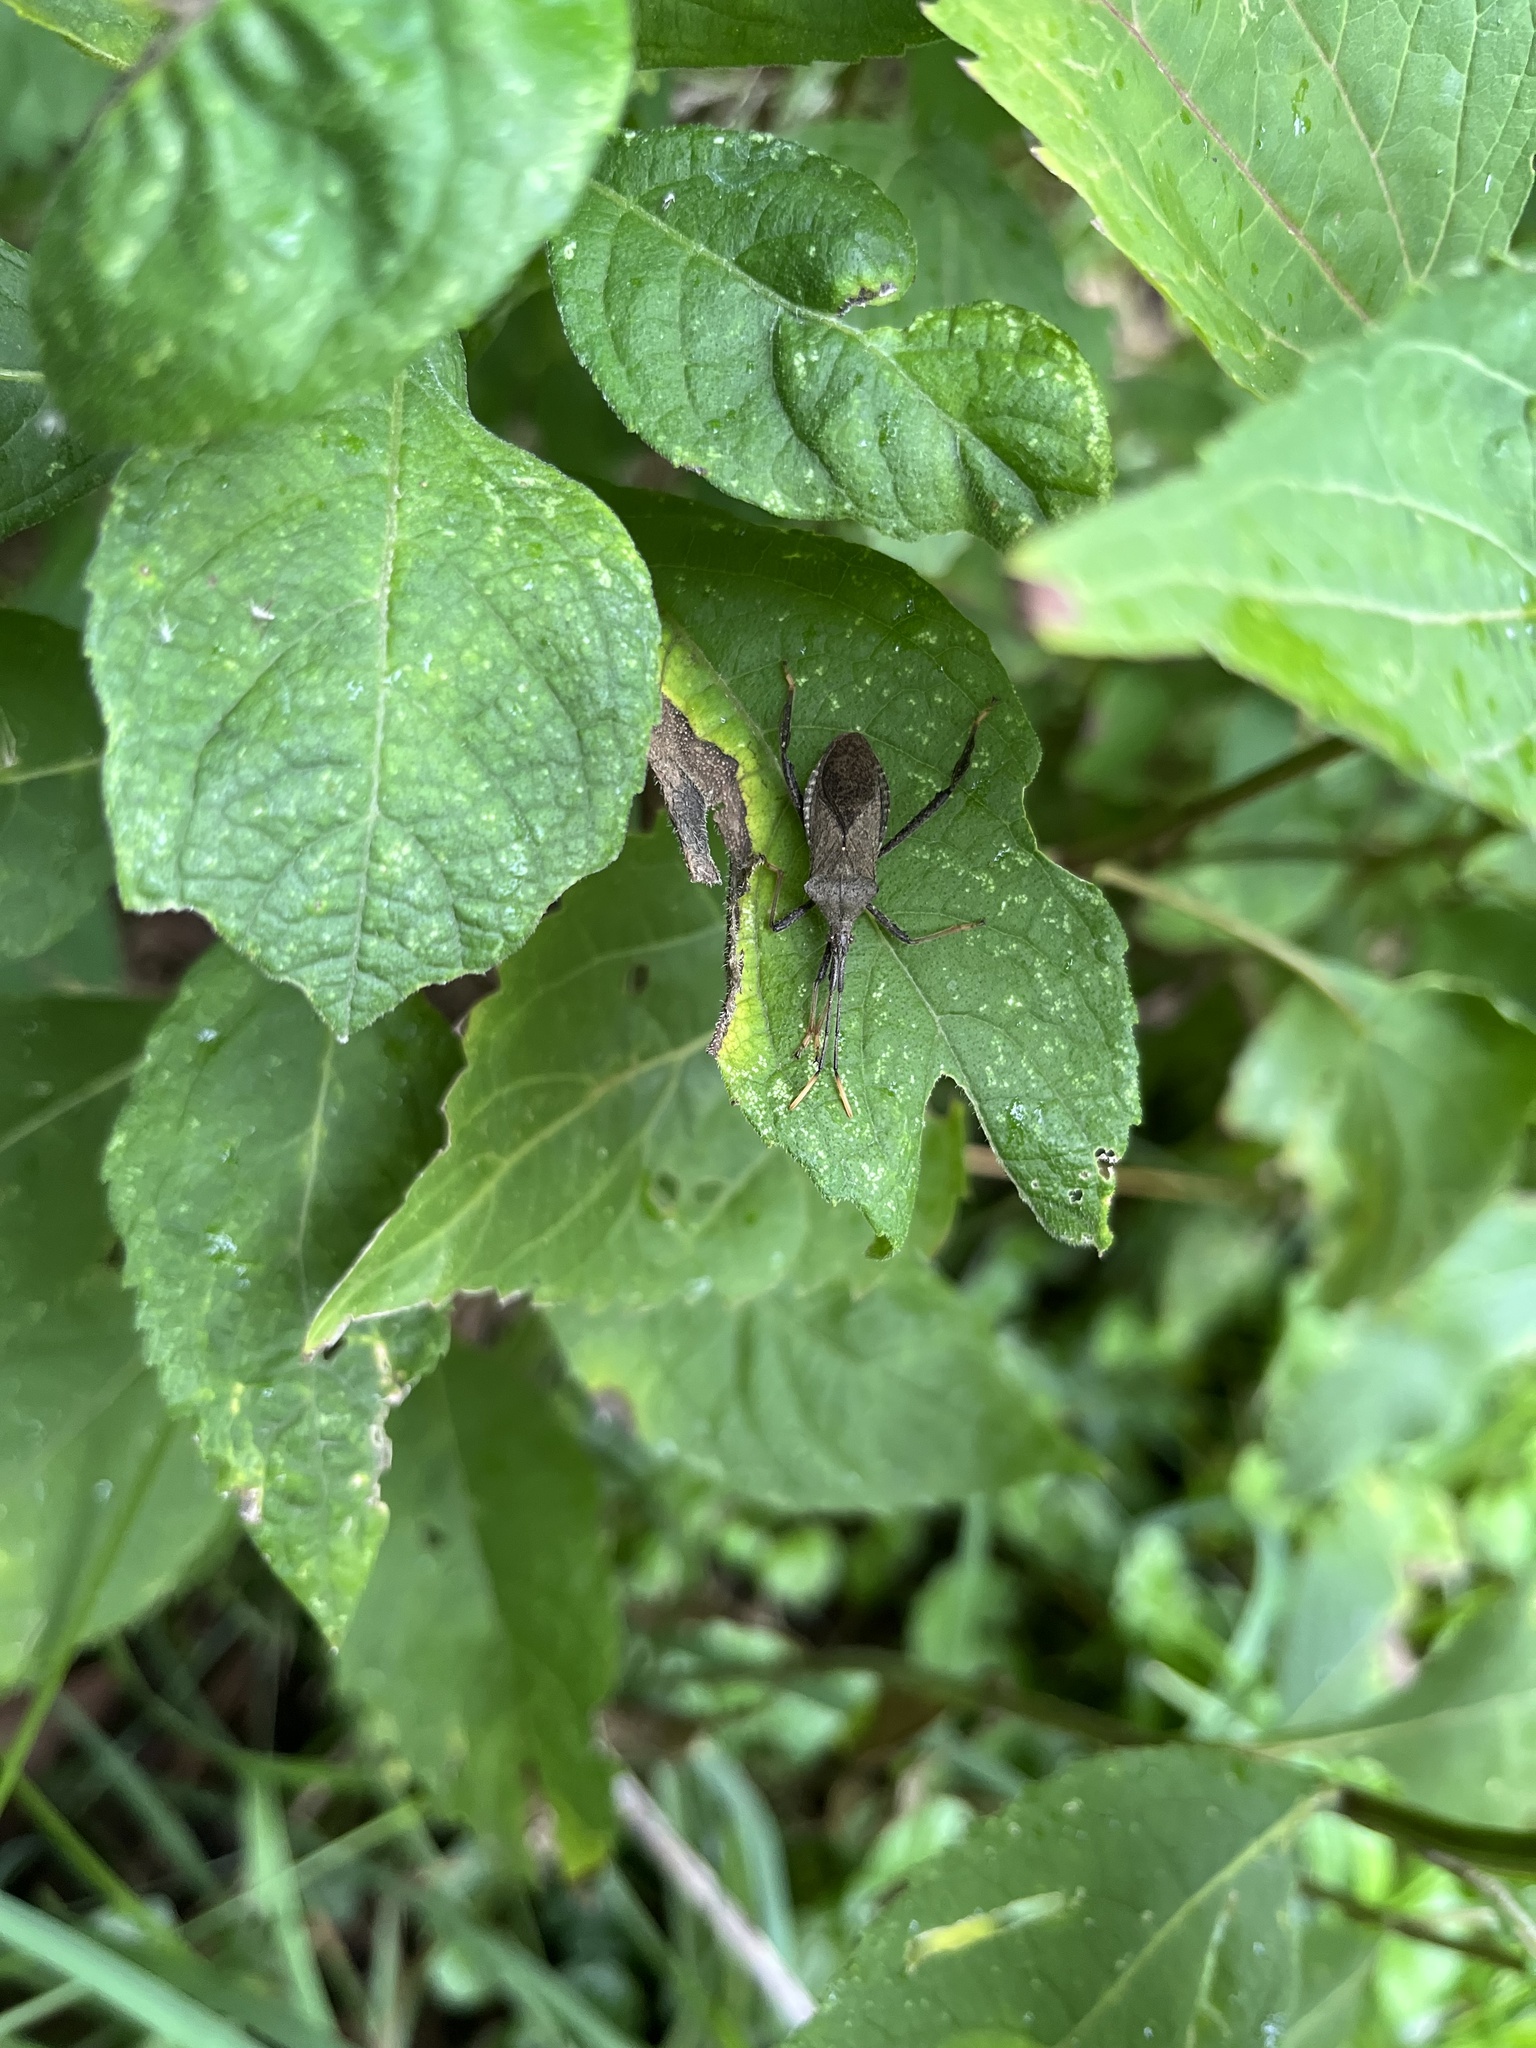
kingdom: Animalia
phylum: Arthropoda
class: Insecta
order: Hemiptera
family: Coreidae
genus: Acanthocephala
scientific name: Acanthocephala terminalis
